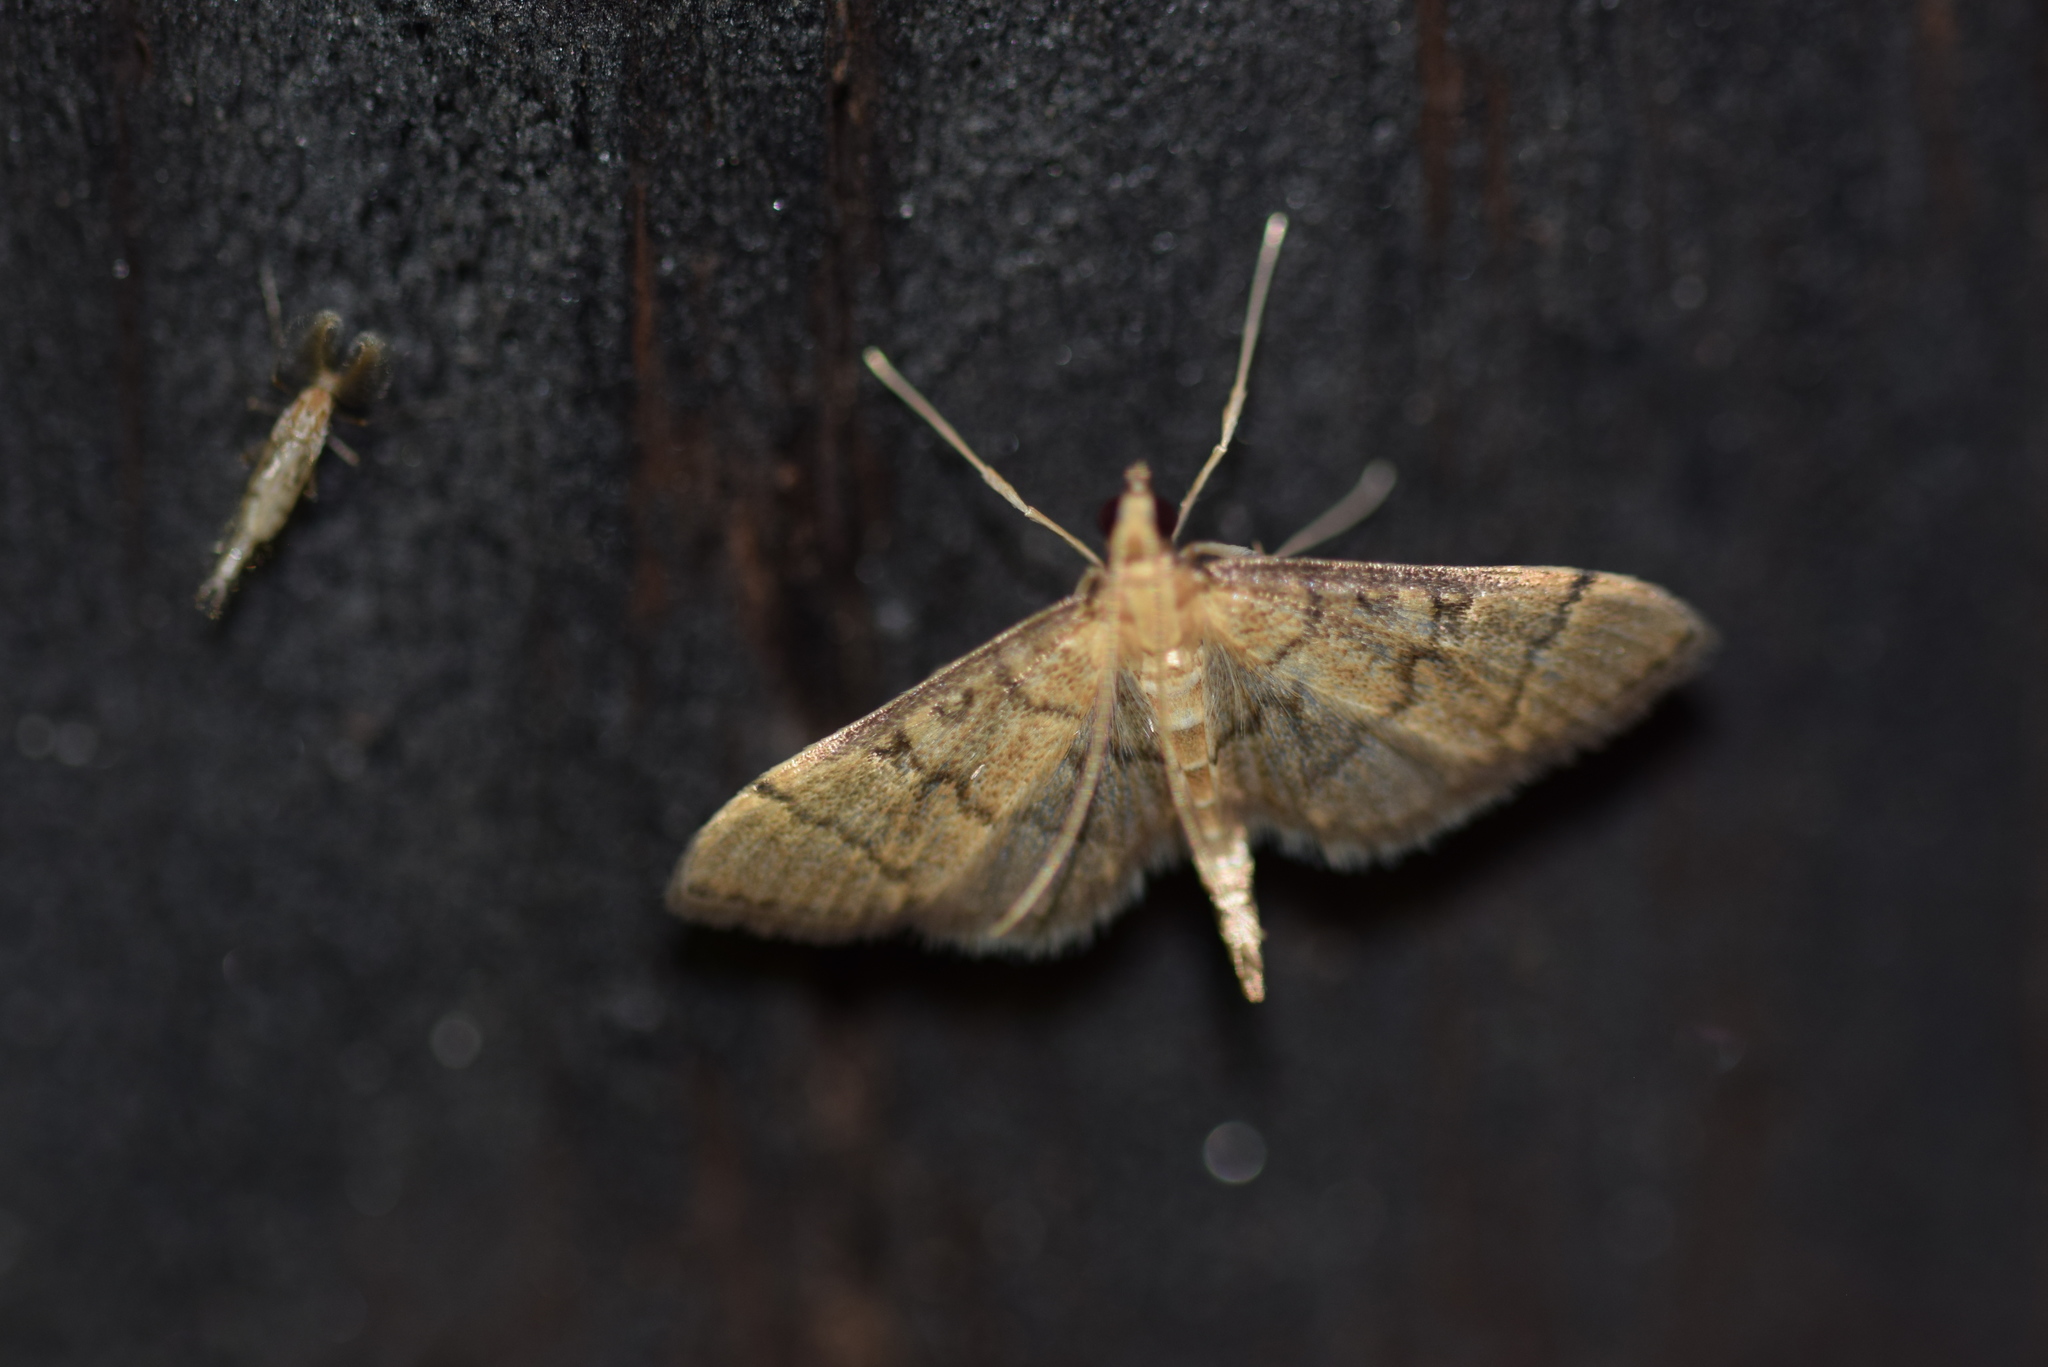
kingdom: Animalia
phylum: Arthropoda
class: Insecta
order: Lepidoptera
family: Crambidae
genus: Lamprosema
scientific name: Lamprosema Blepharomastix ranalis
